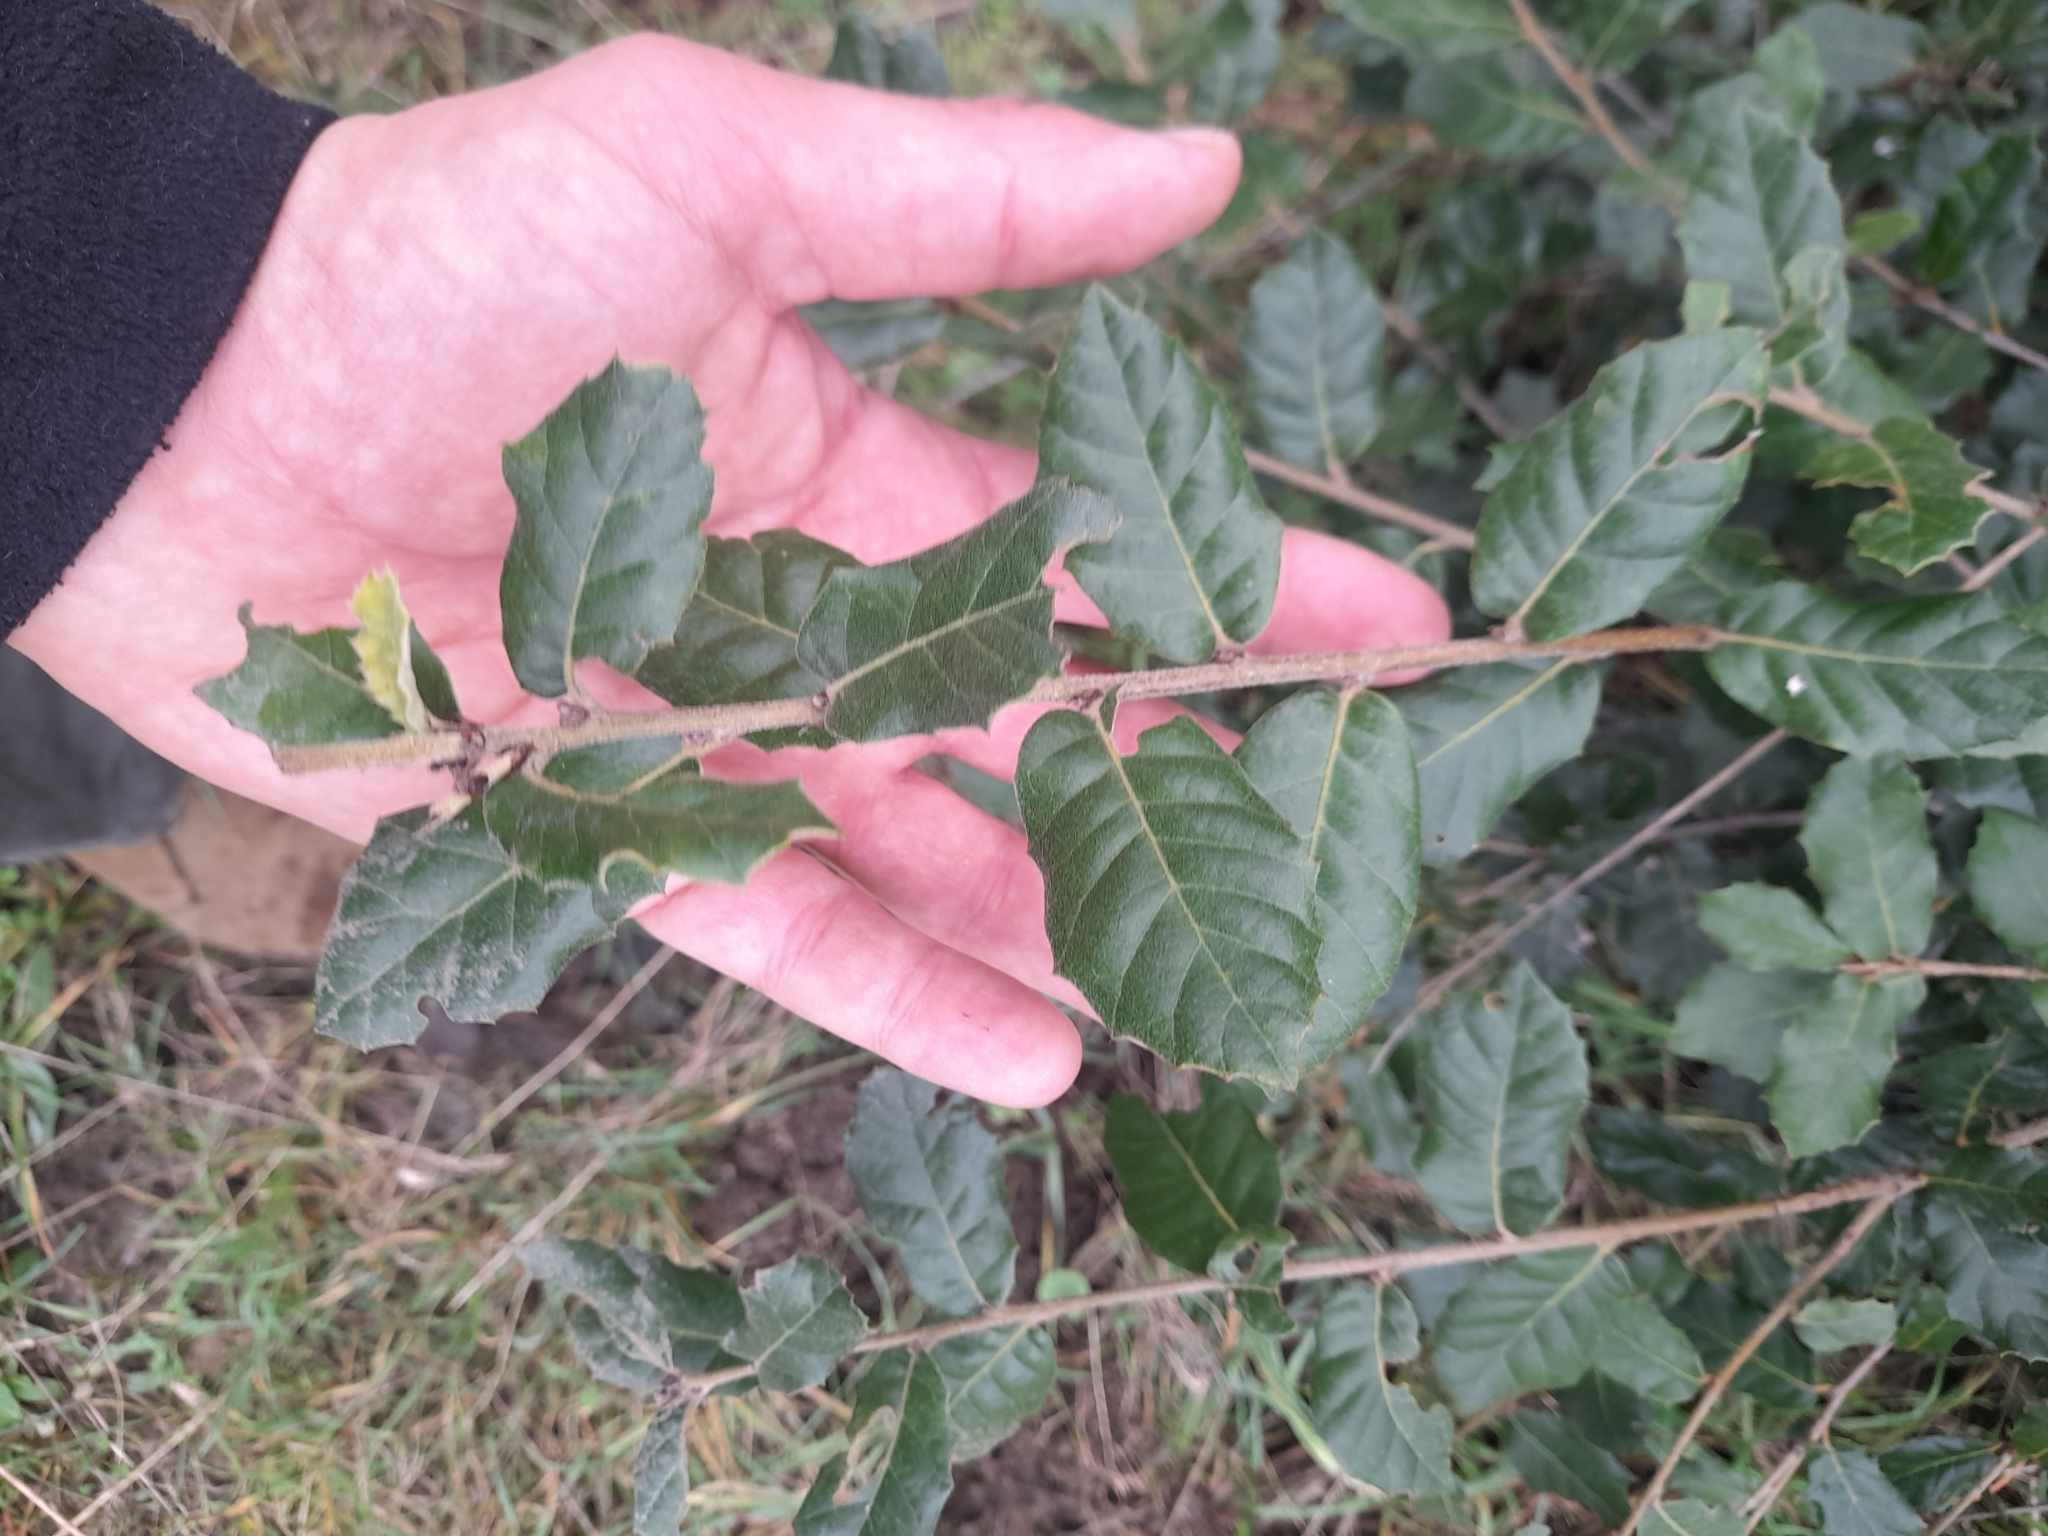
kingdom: Plantae
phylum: Tracheophyta
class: Magnoliopsida
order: Fagales
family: Fagaceae
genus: Quercus
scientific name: Quercus ilex
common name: Evergreen oak
